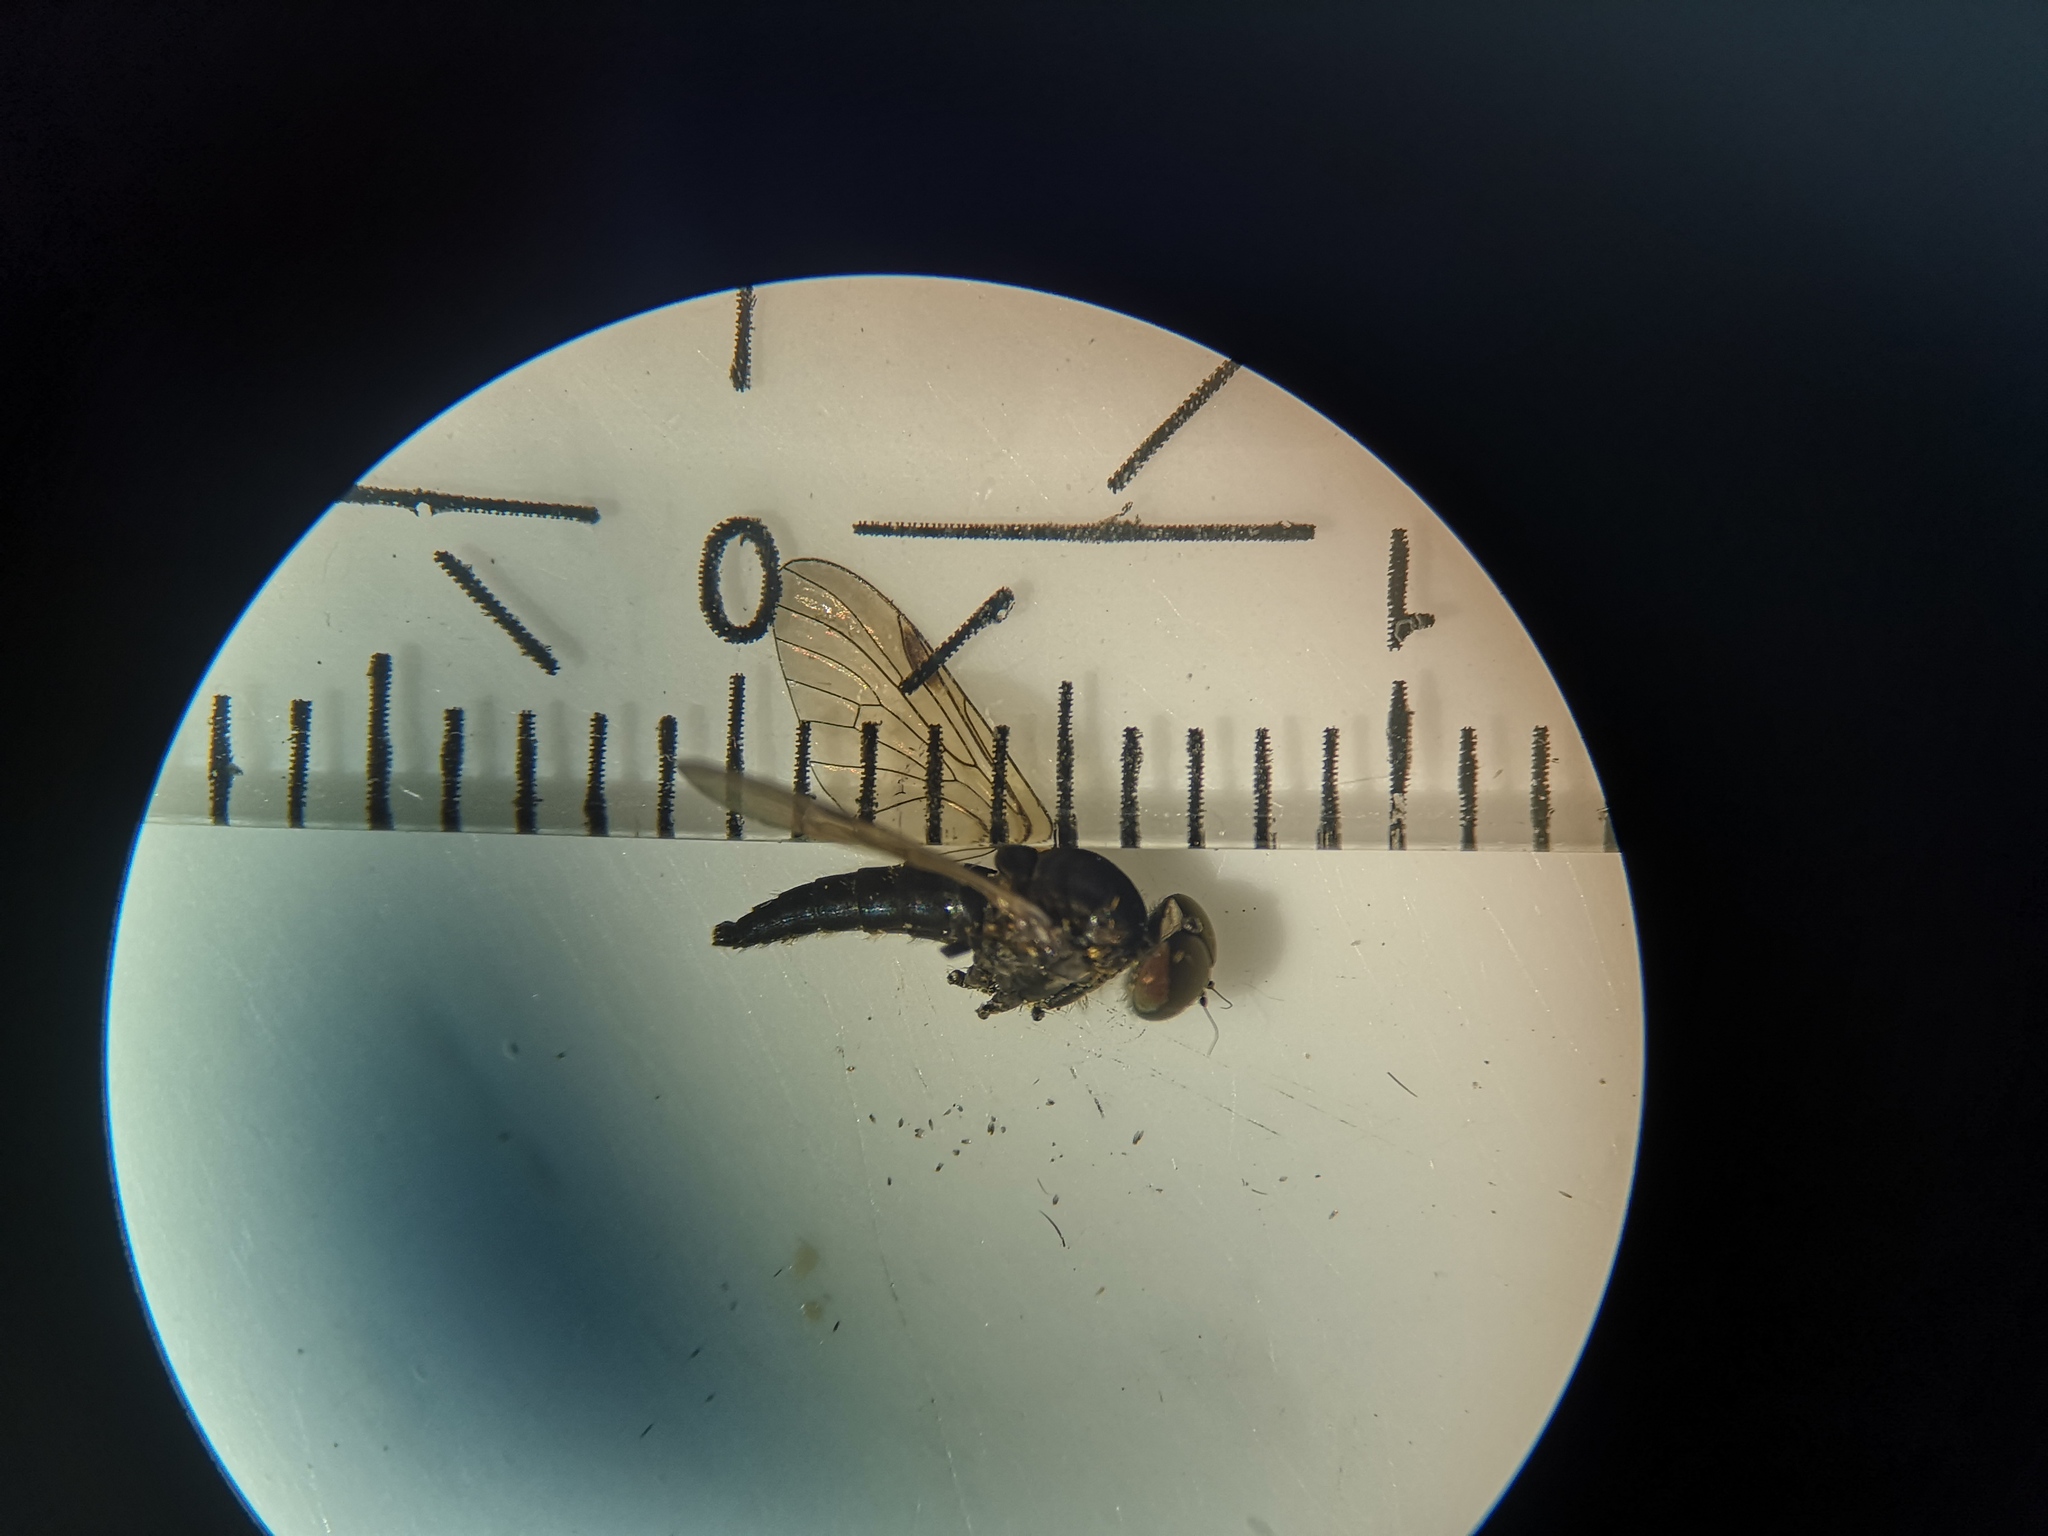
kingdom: Animalia
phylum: Arthropoda
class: Insecta
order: Diptera
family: Rhagionidae
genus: Chrysopilus
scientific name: Chrysopilus cristatus
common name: Black snipefly
